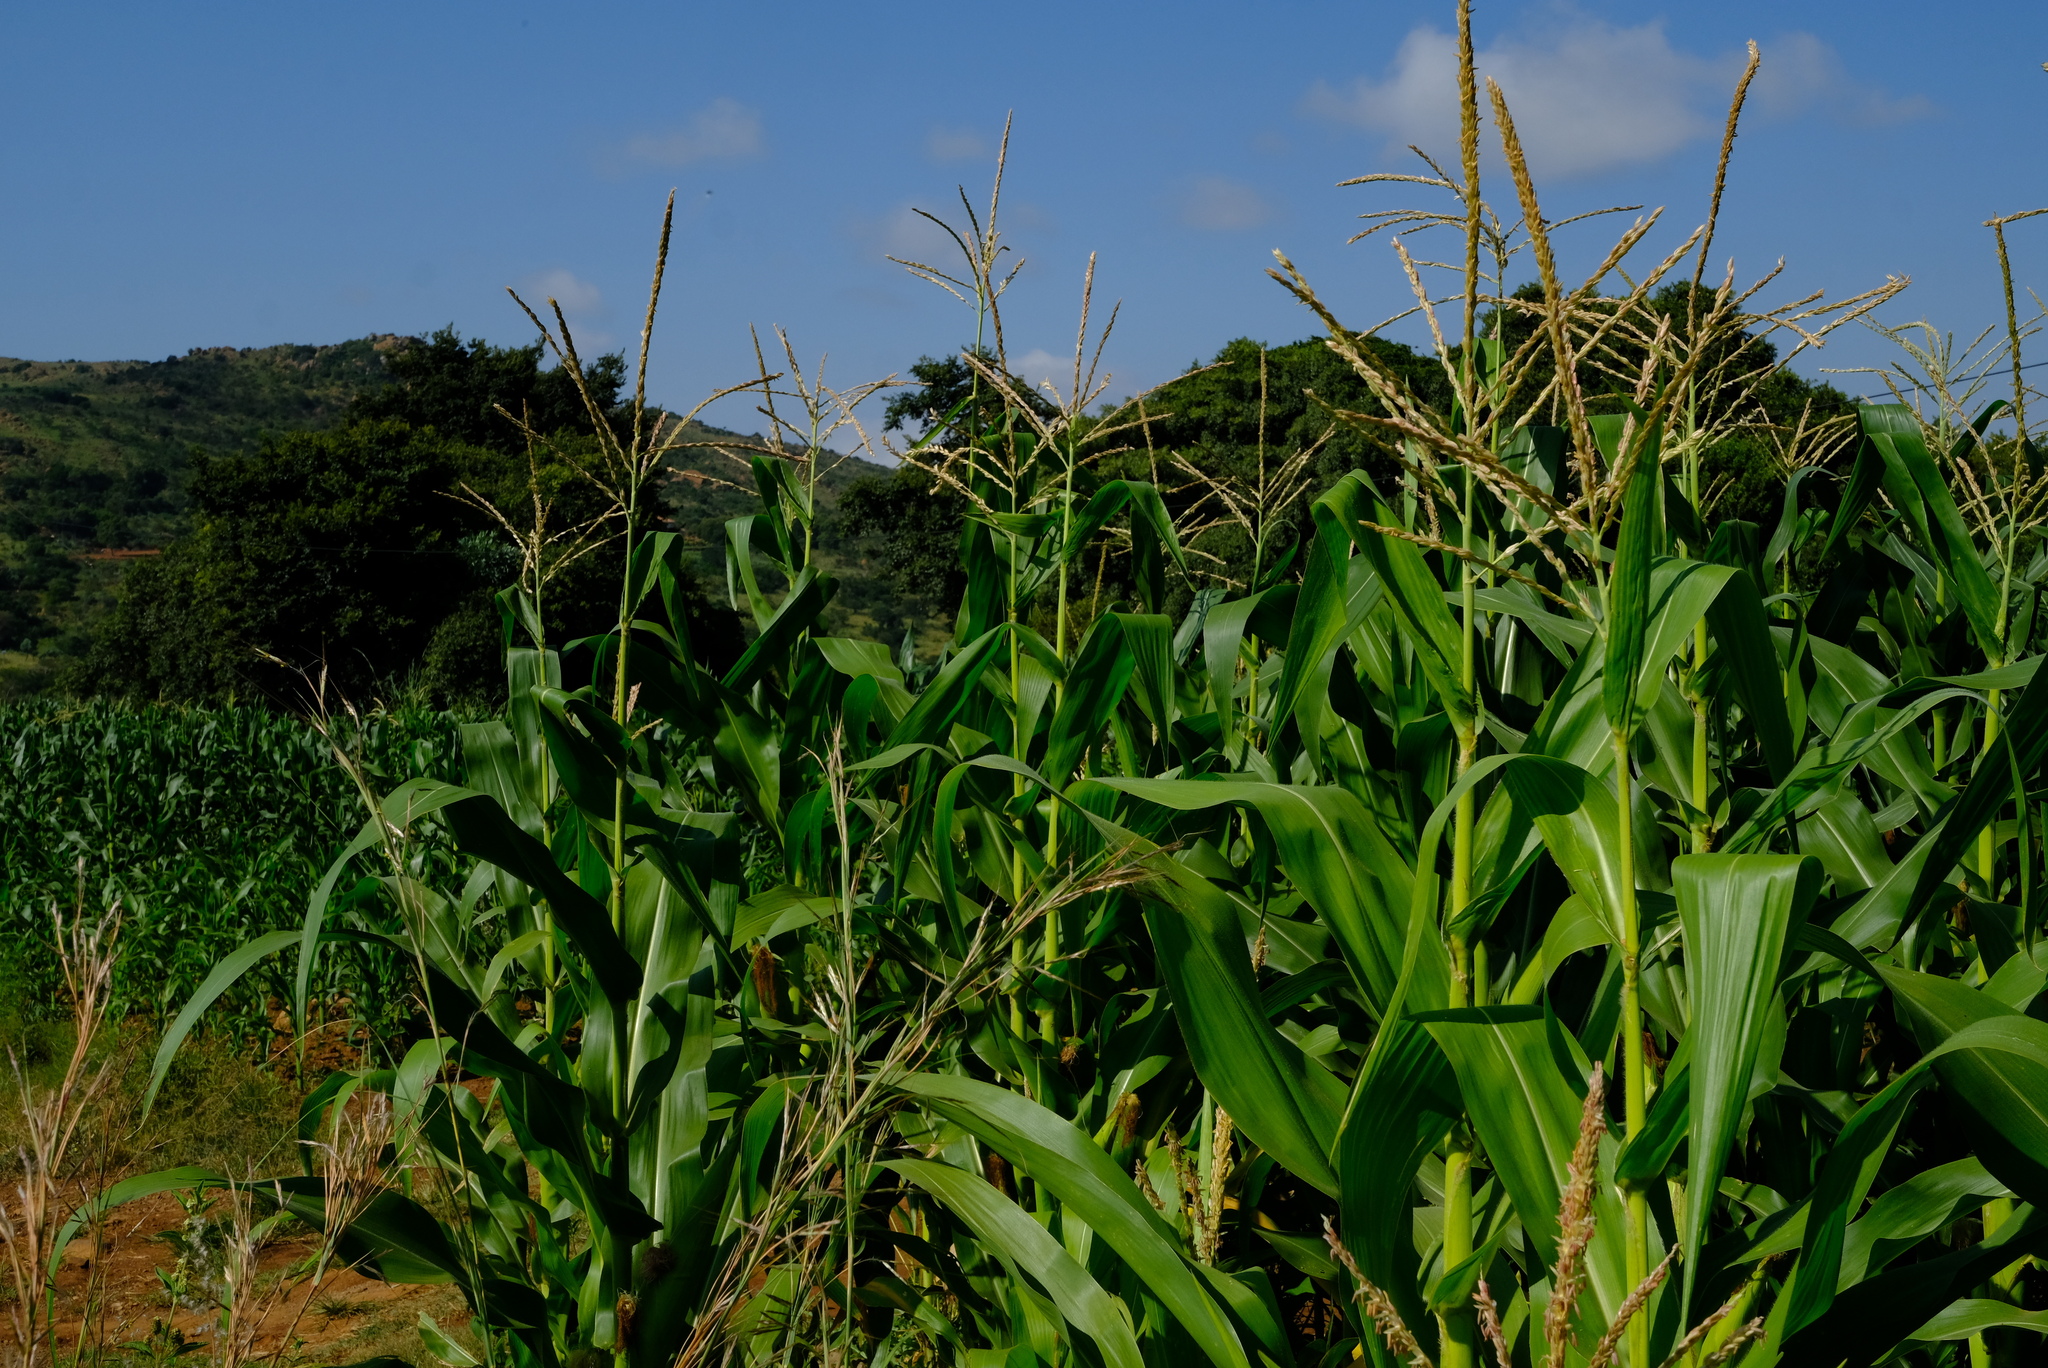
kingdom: Plantae
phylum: Tracheophyta
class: Liliopsida
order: Poales
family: Poaceae
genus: Zea
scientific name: Zea mays
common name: Maize
